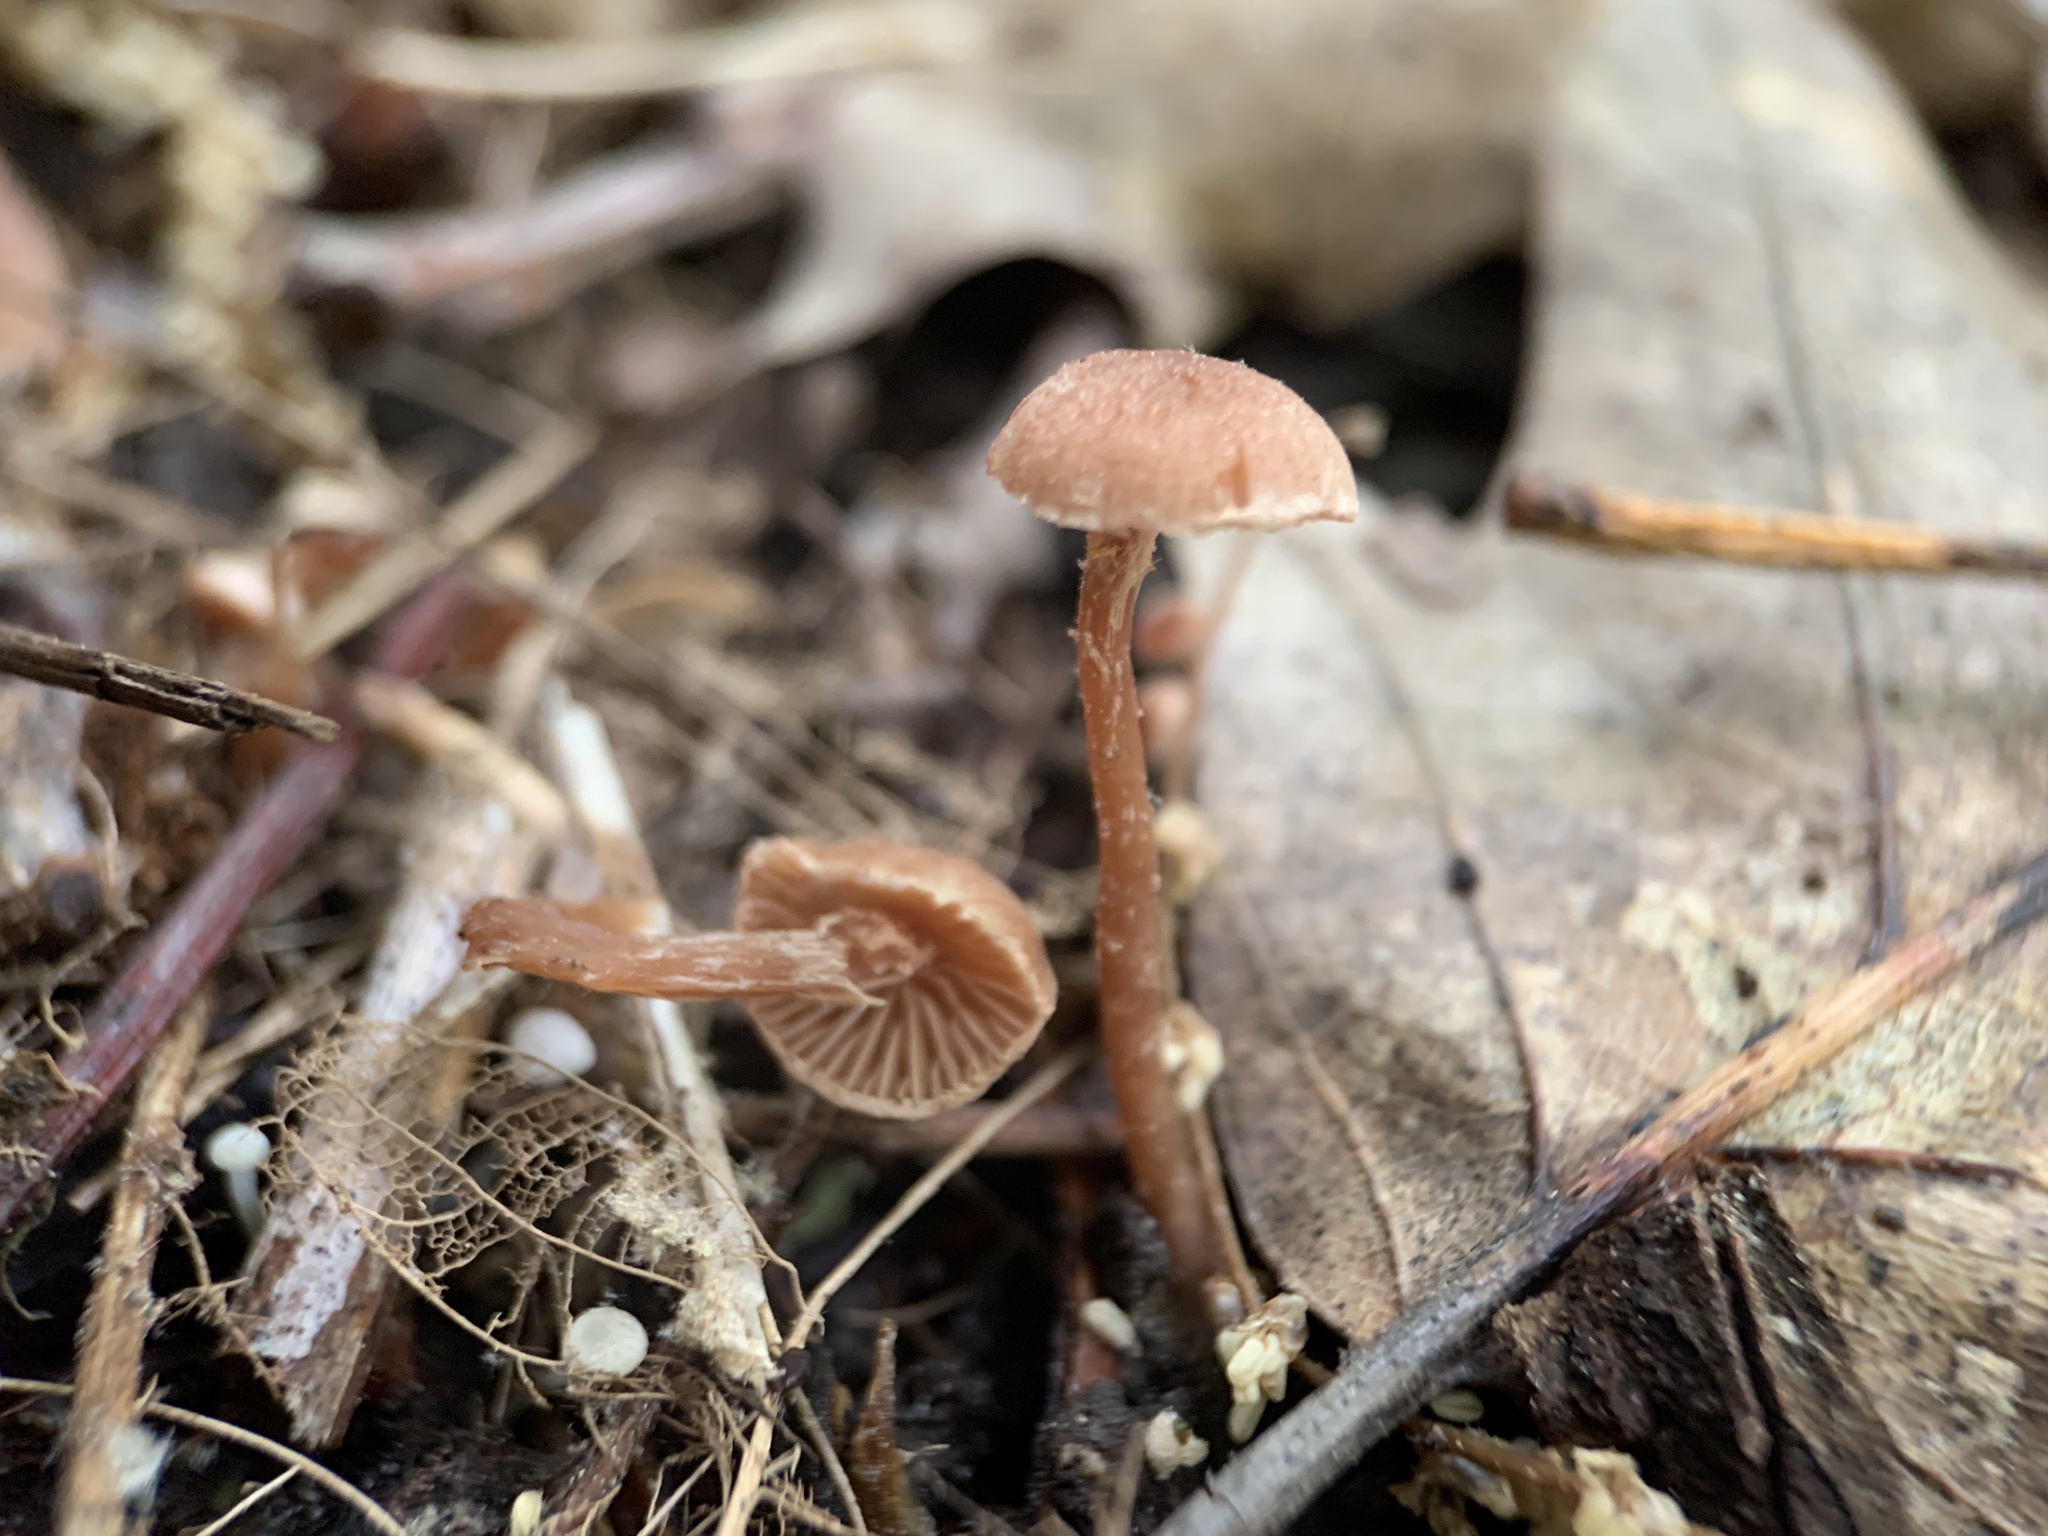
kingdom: Fungi
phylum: Basidiomycota
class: Agaricomycetes
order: Agaricales
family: Tubariaceae
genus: Tubaria
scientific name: Tubaria furfuracea
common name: Scurfy twiglet
